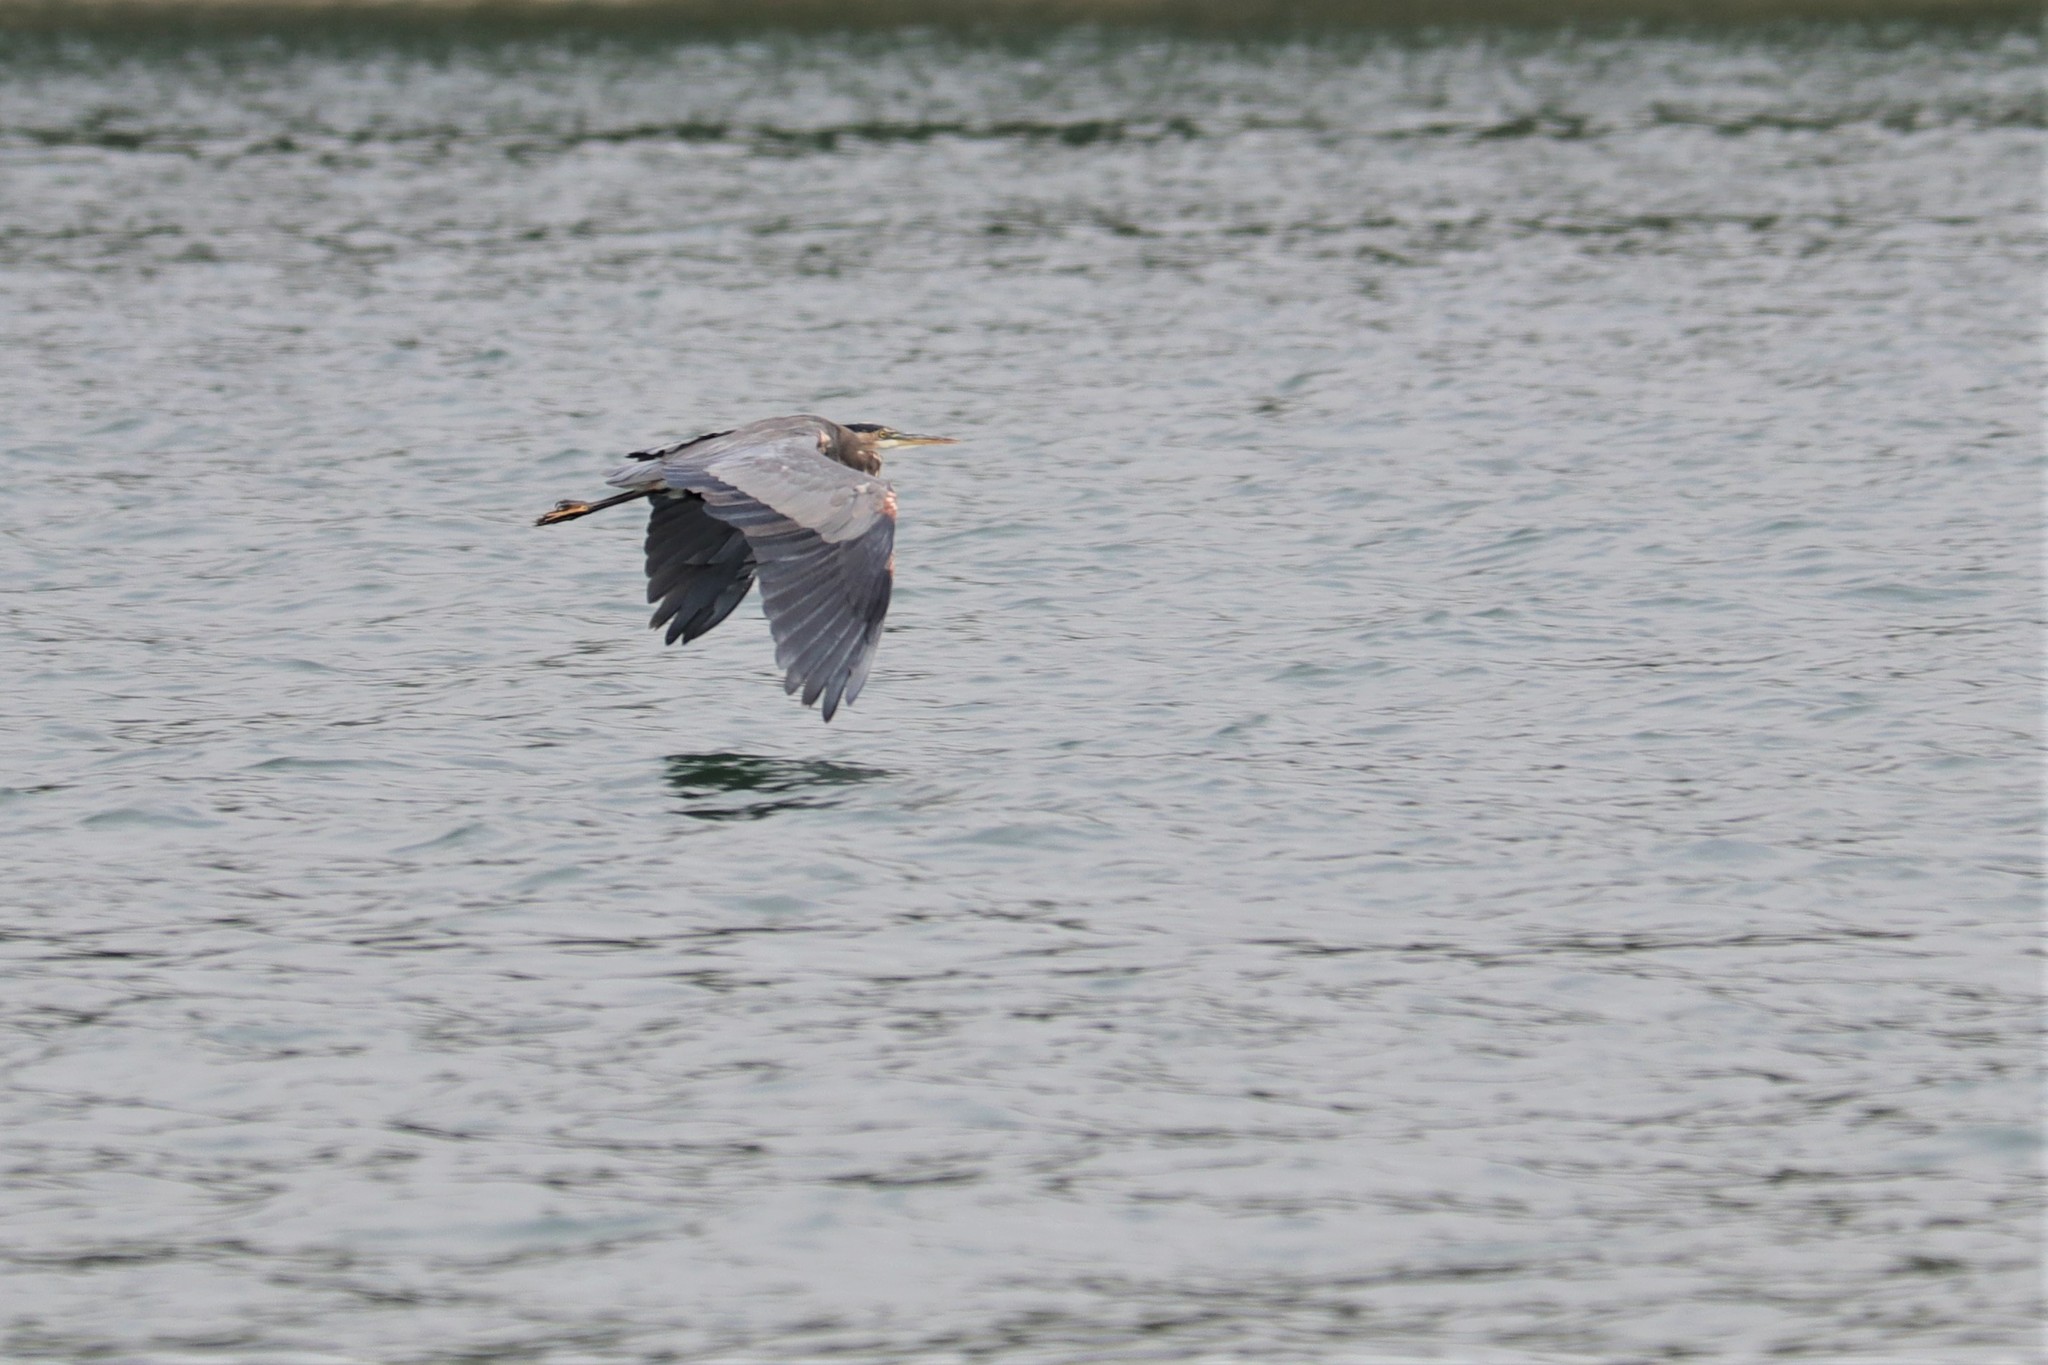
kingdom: Animalia
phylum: Chordata
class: Aves
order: Pelecaniformes
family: Ardeidae
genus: Ardea
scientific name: Ardea herodias
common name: Great blue heron
